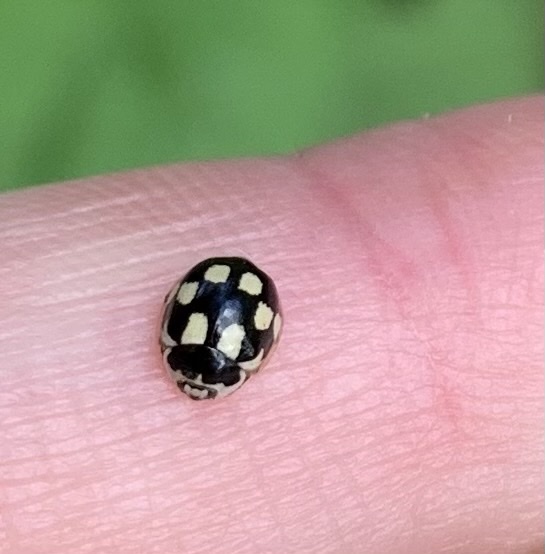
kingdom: Animalia
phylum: Arthropoda
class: Insecta
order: Coleoptera
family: Coccinellidae
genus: Propylaea
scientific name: Propylaea quatuordecimpunctata
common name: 14-spotted ladybird beetle
